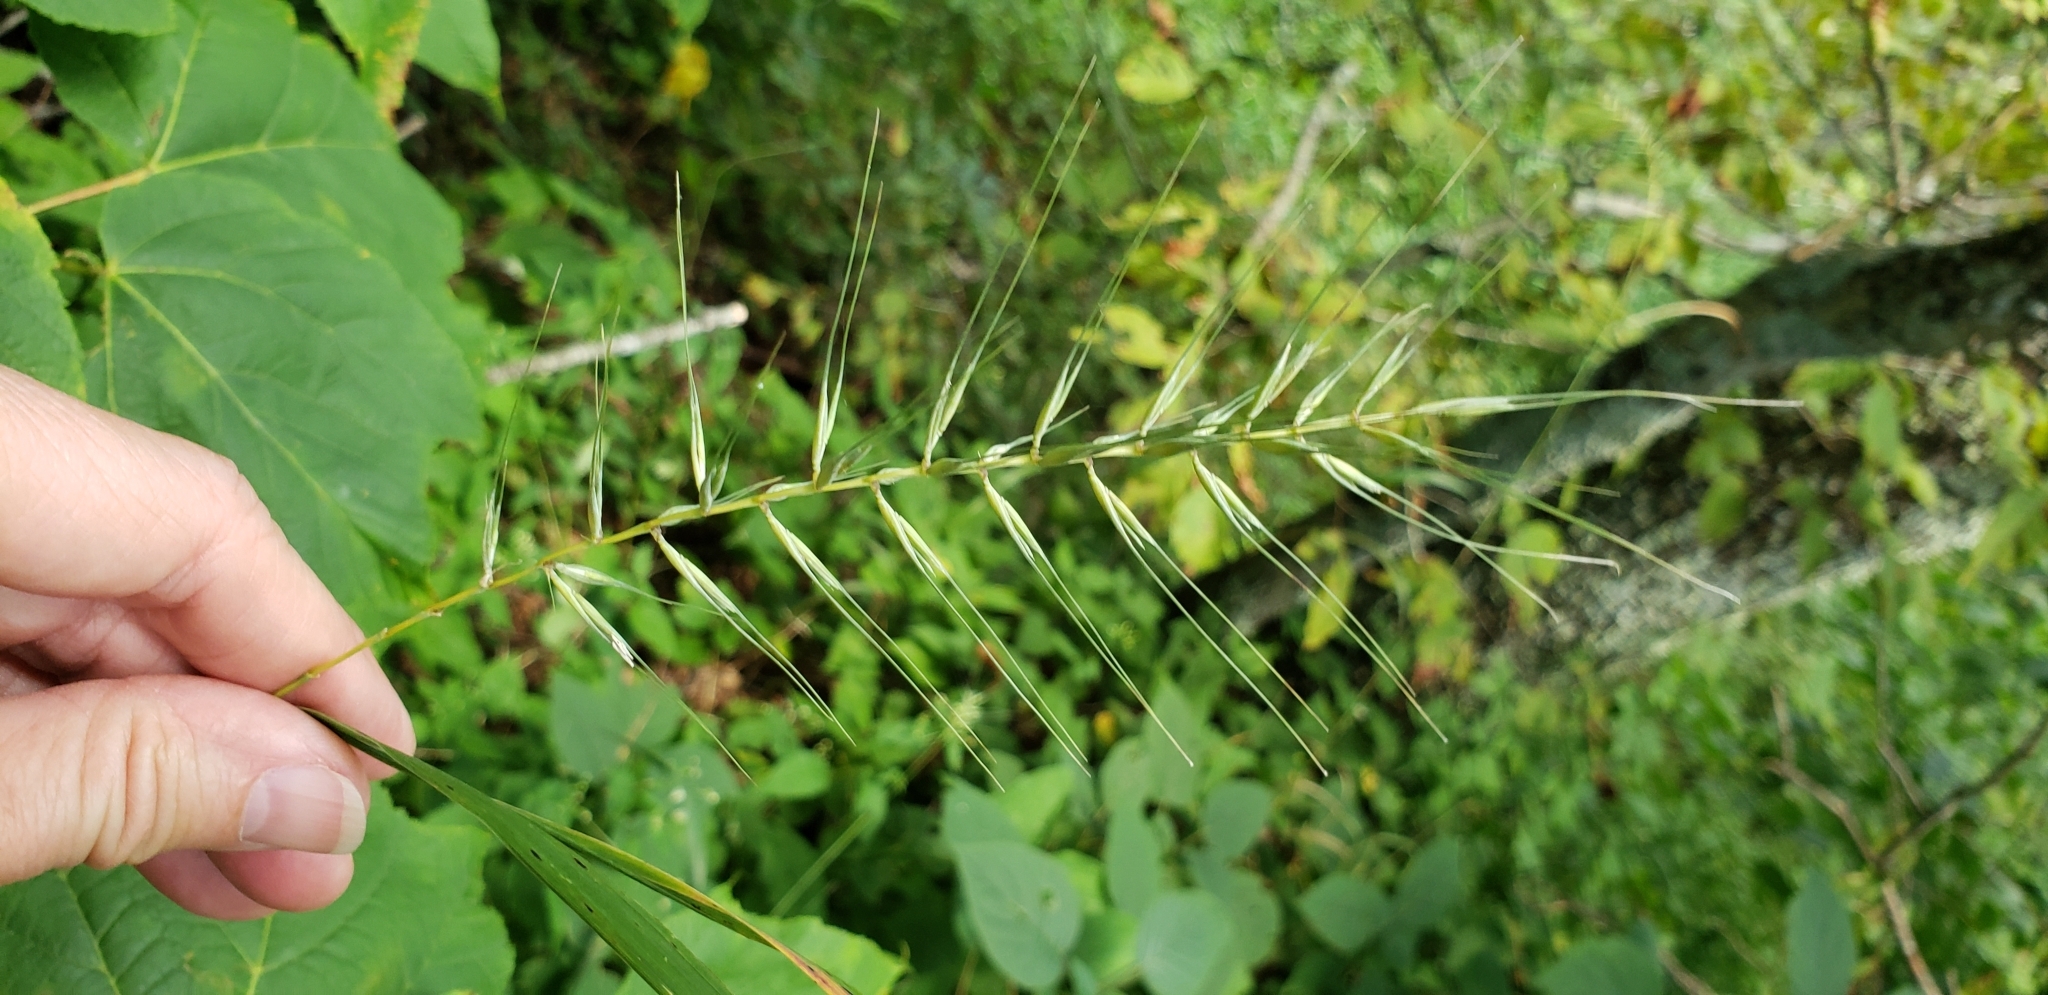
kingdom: Plantae
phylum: Tracheophyta
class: Liliopsida
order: Poales
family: Poaceae
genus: Elymus
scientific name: Elymus hystrix
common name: Bottlebrush grass
